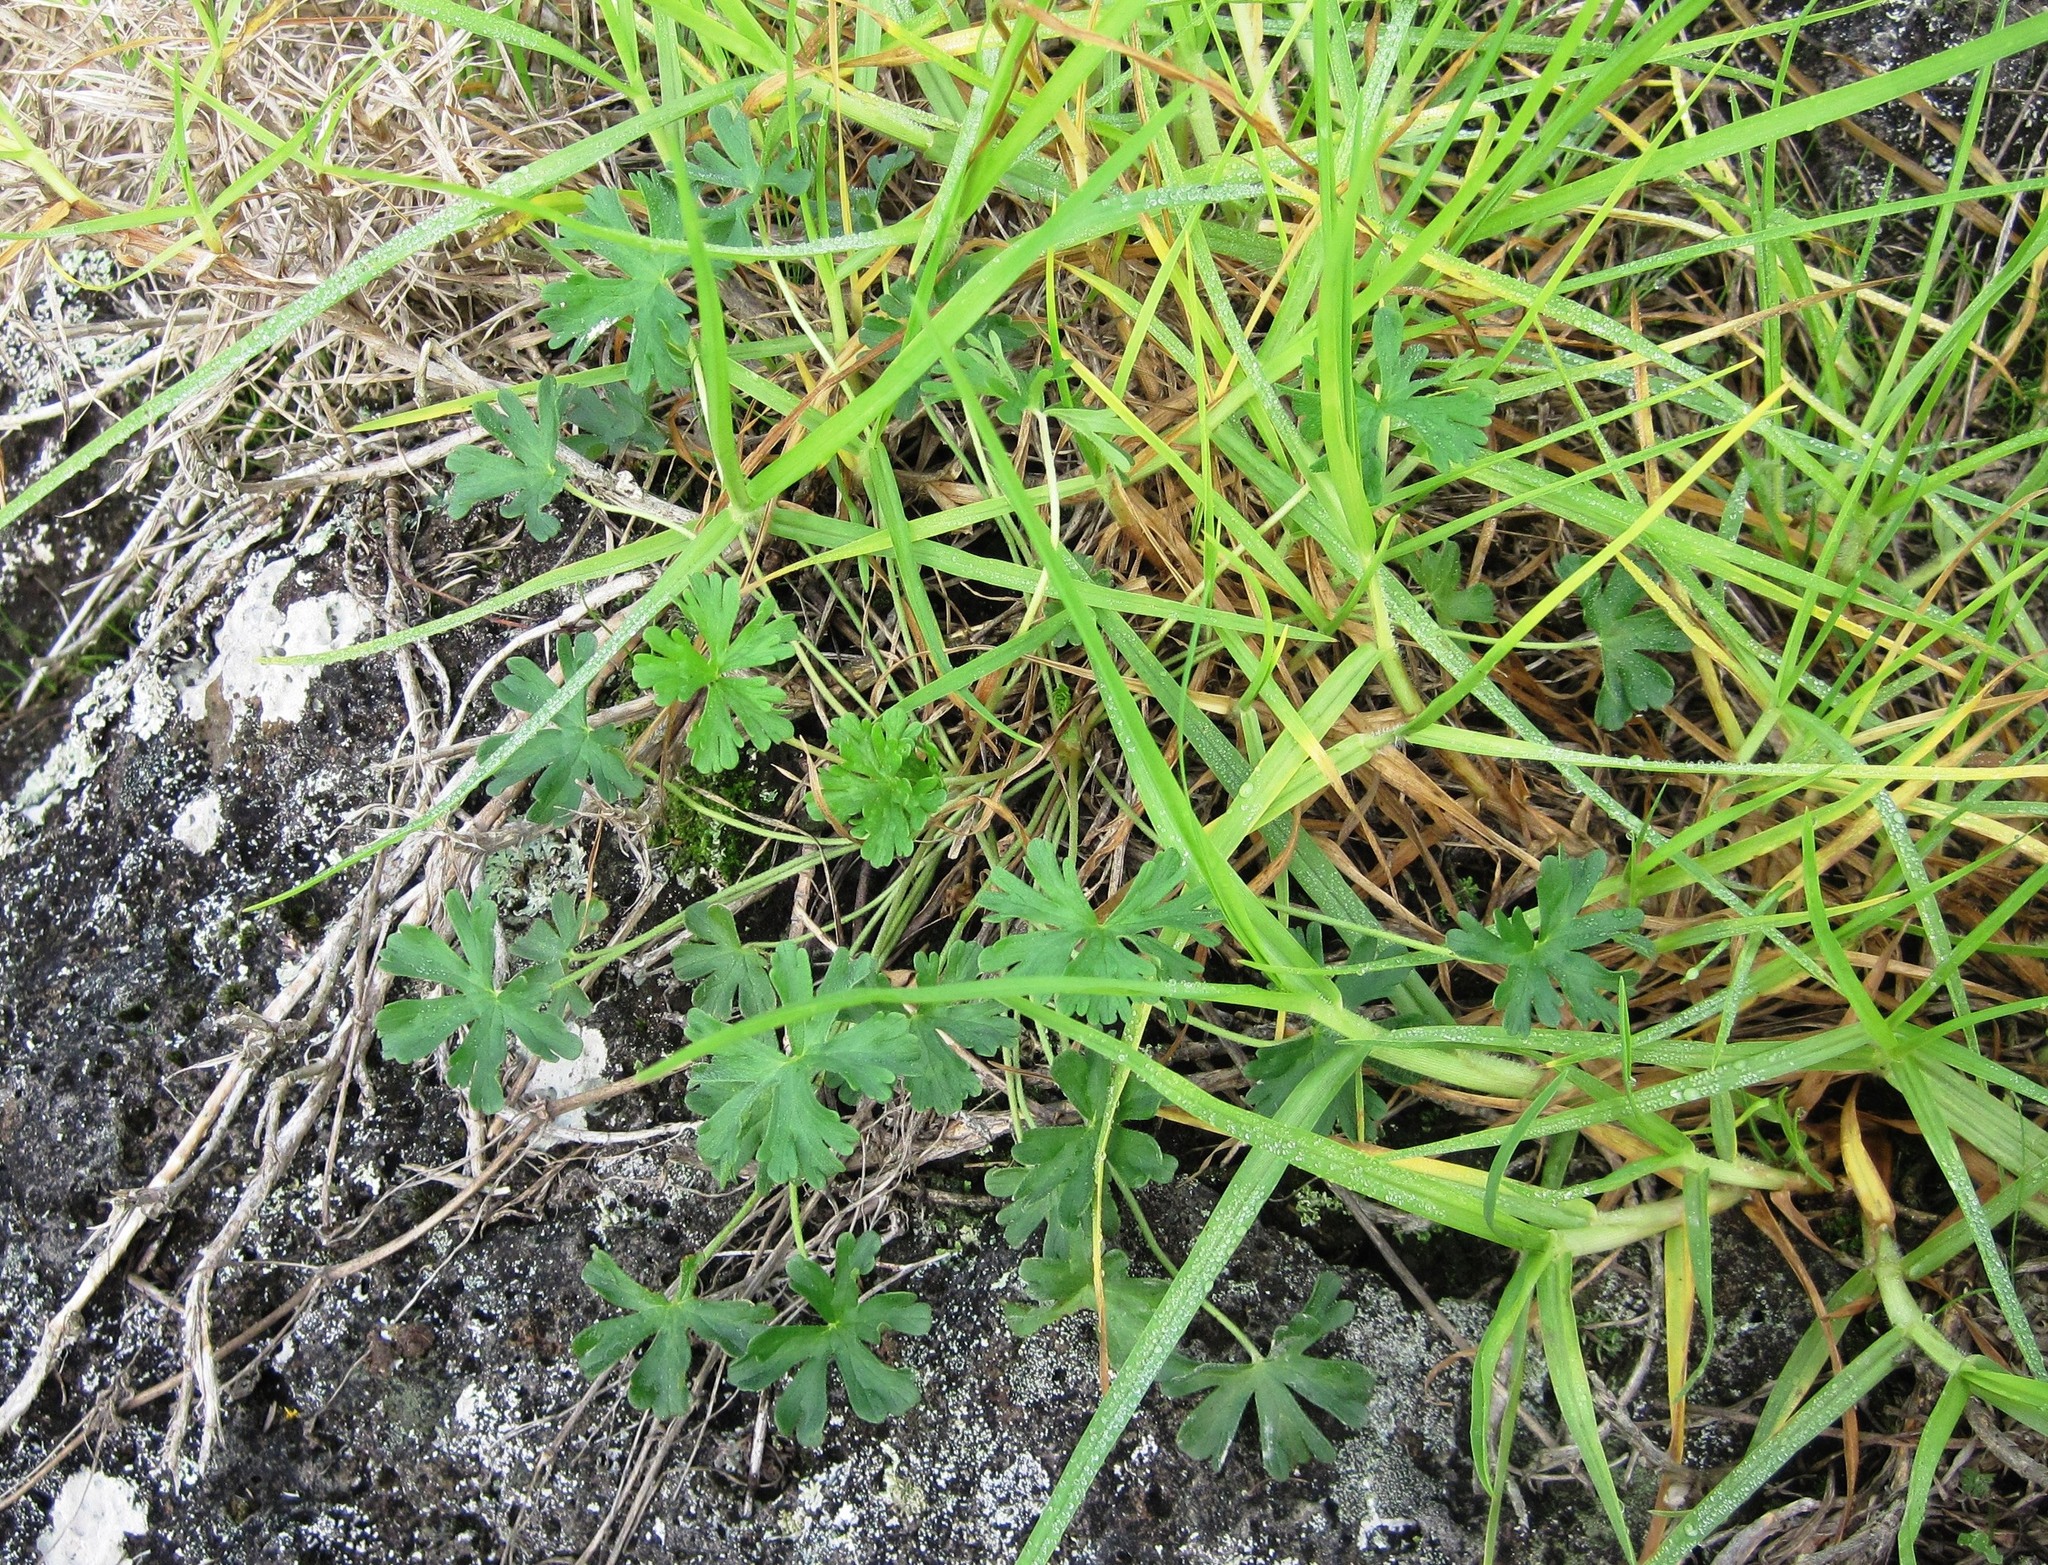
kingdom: Plantae
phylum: Tracheophyta
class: Magnoliopsida
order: Geraniales
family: Geraniaceae
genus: Geranium
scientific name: Geranium retrorsum
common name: New zealand geranium
